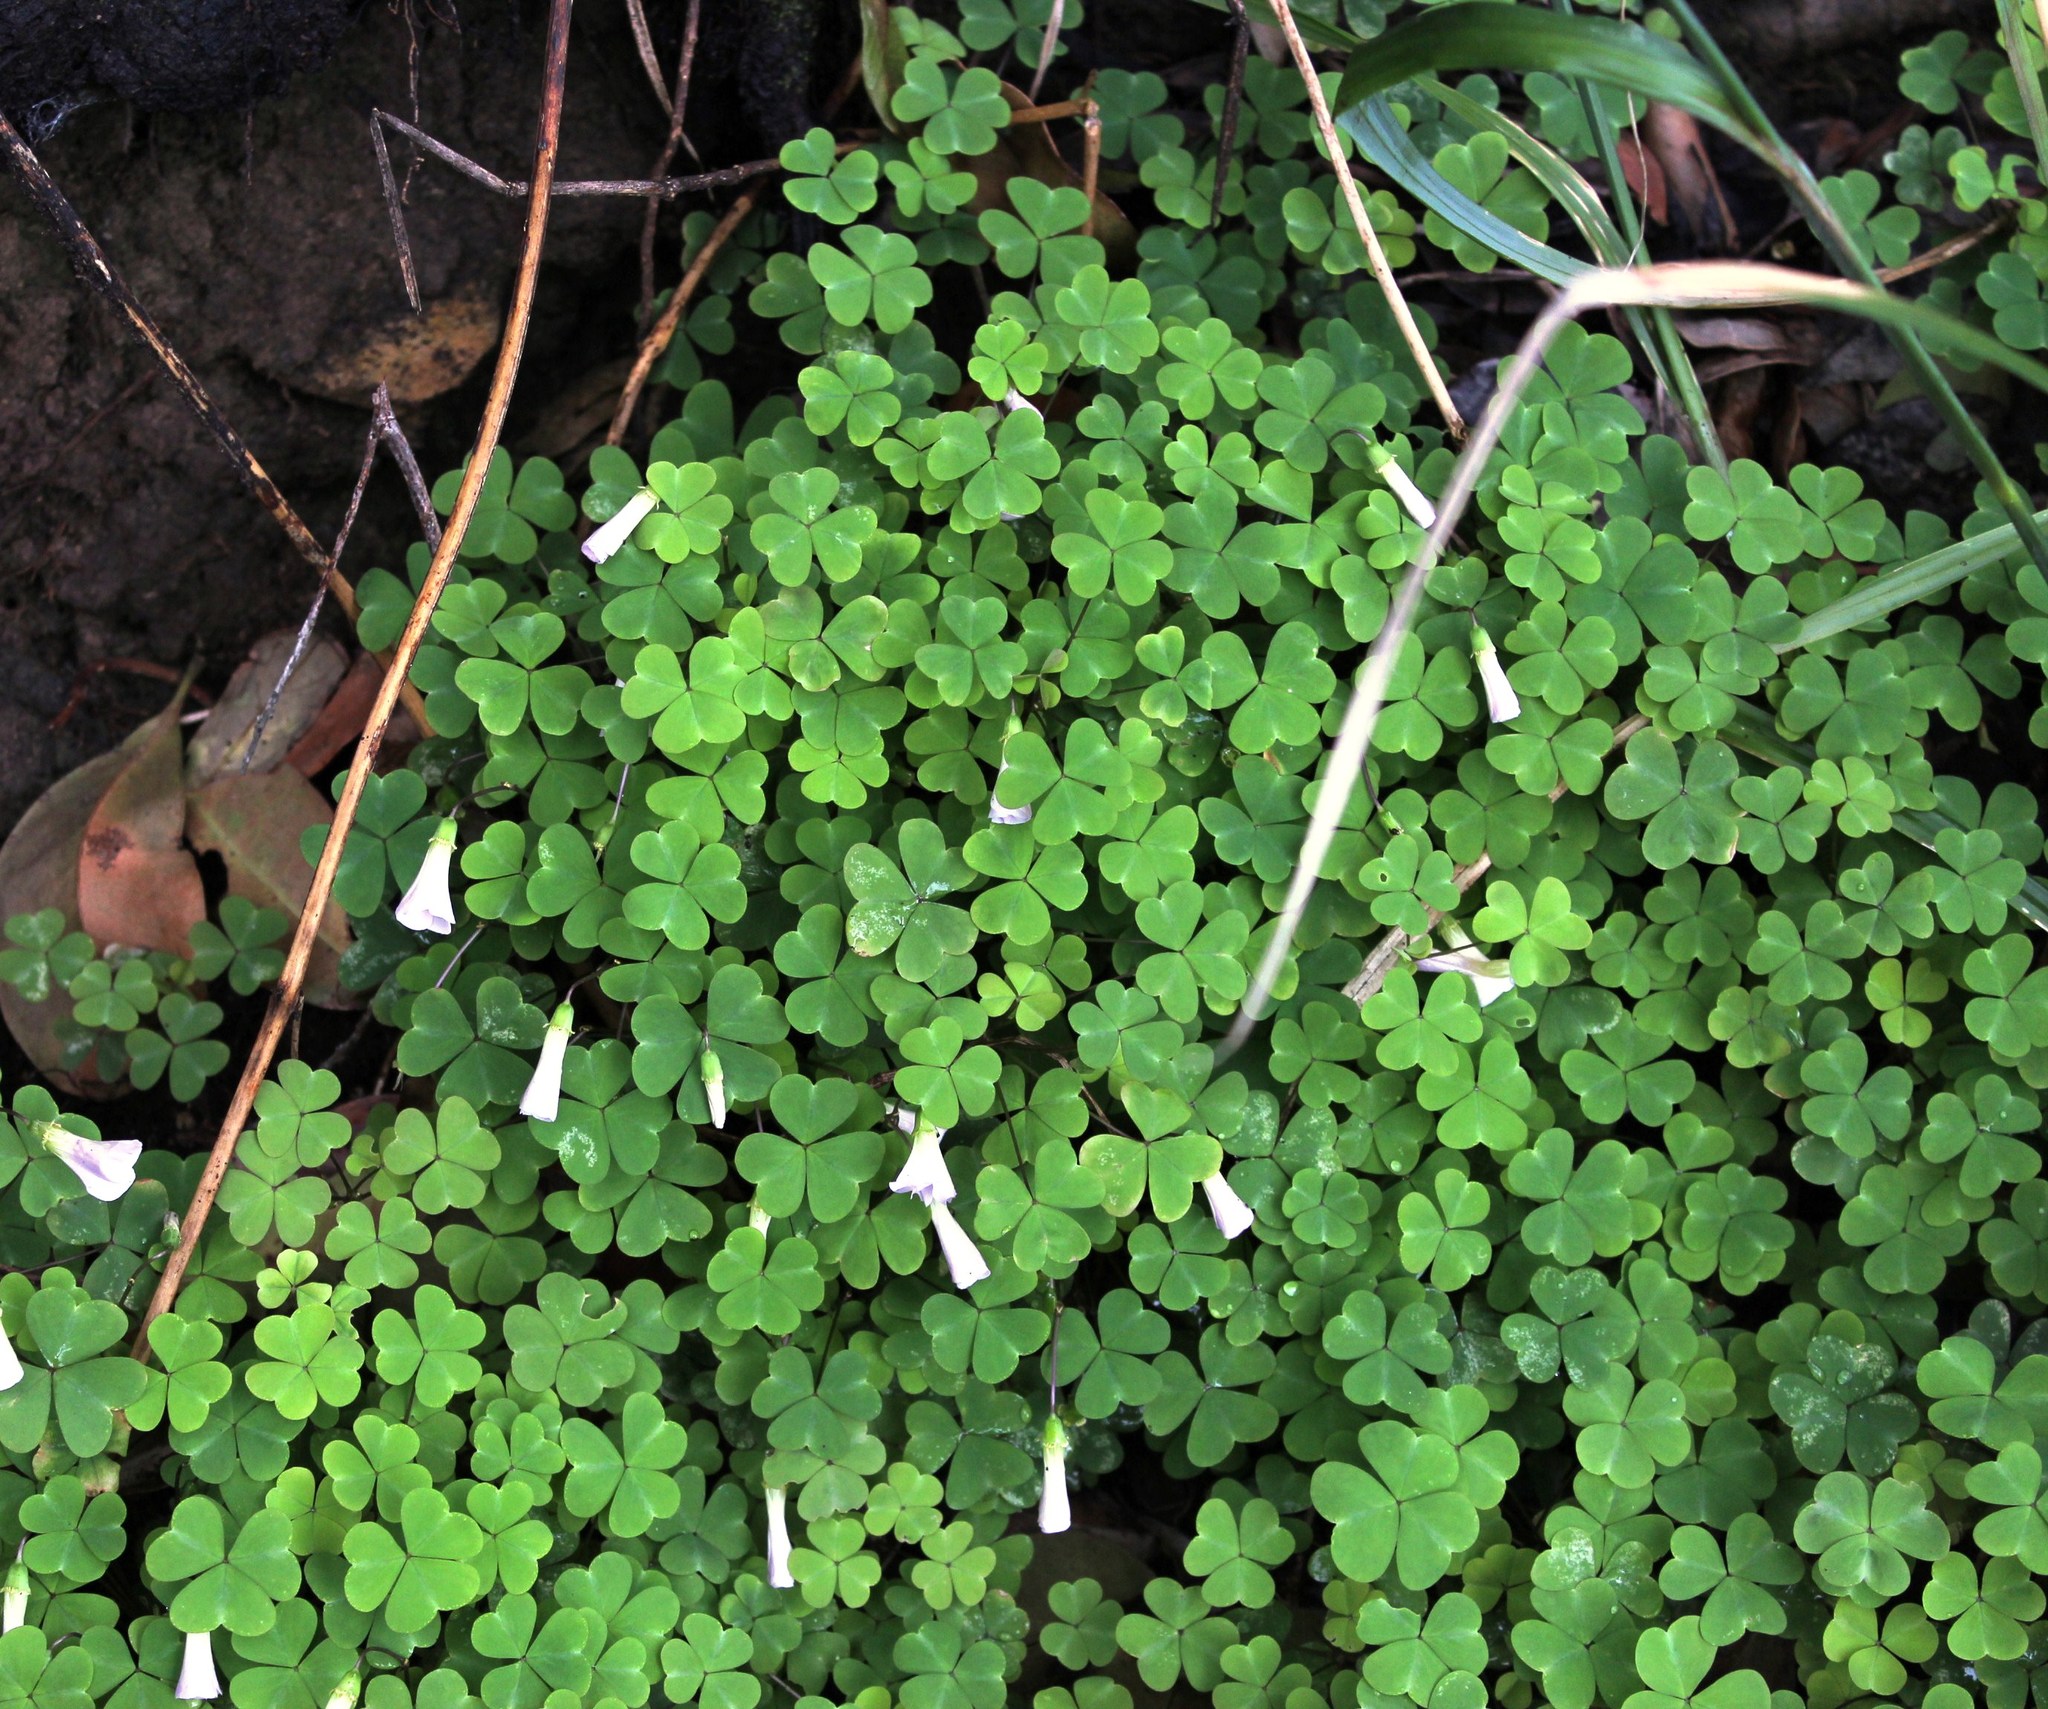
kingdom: Plantae
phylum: Tracheophyta
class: Magnoliopsida
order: Oxalidales
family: Oxalidaceae
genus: Oxalis
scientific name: Oxalis incarnata
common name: Pale pink-sorrel
